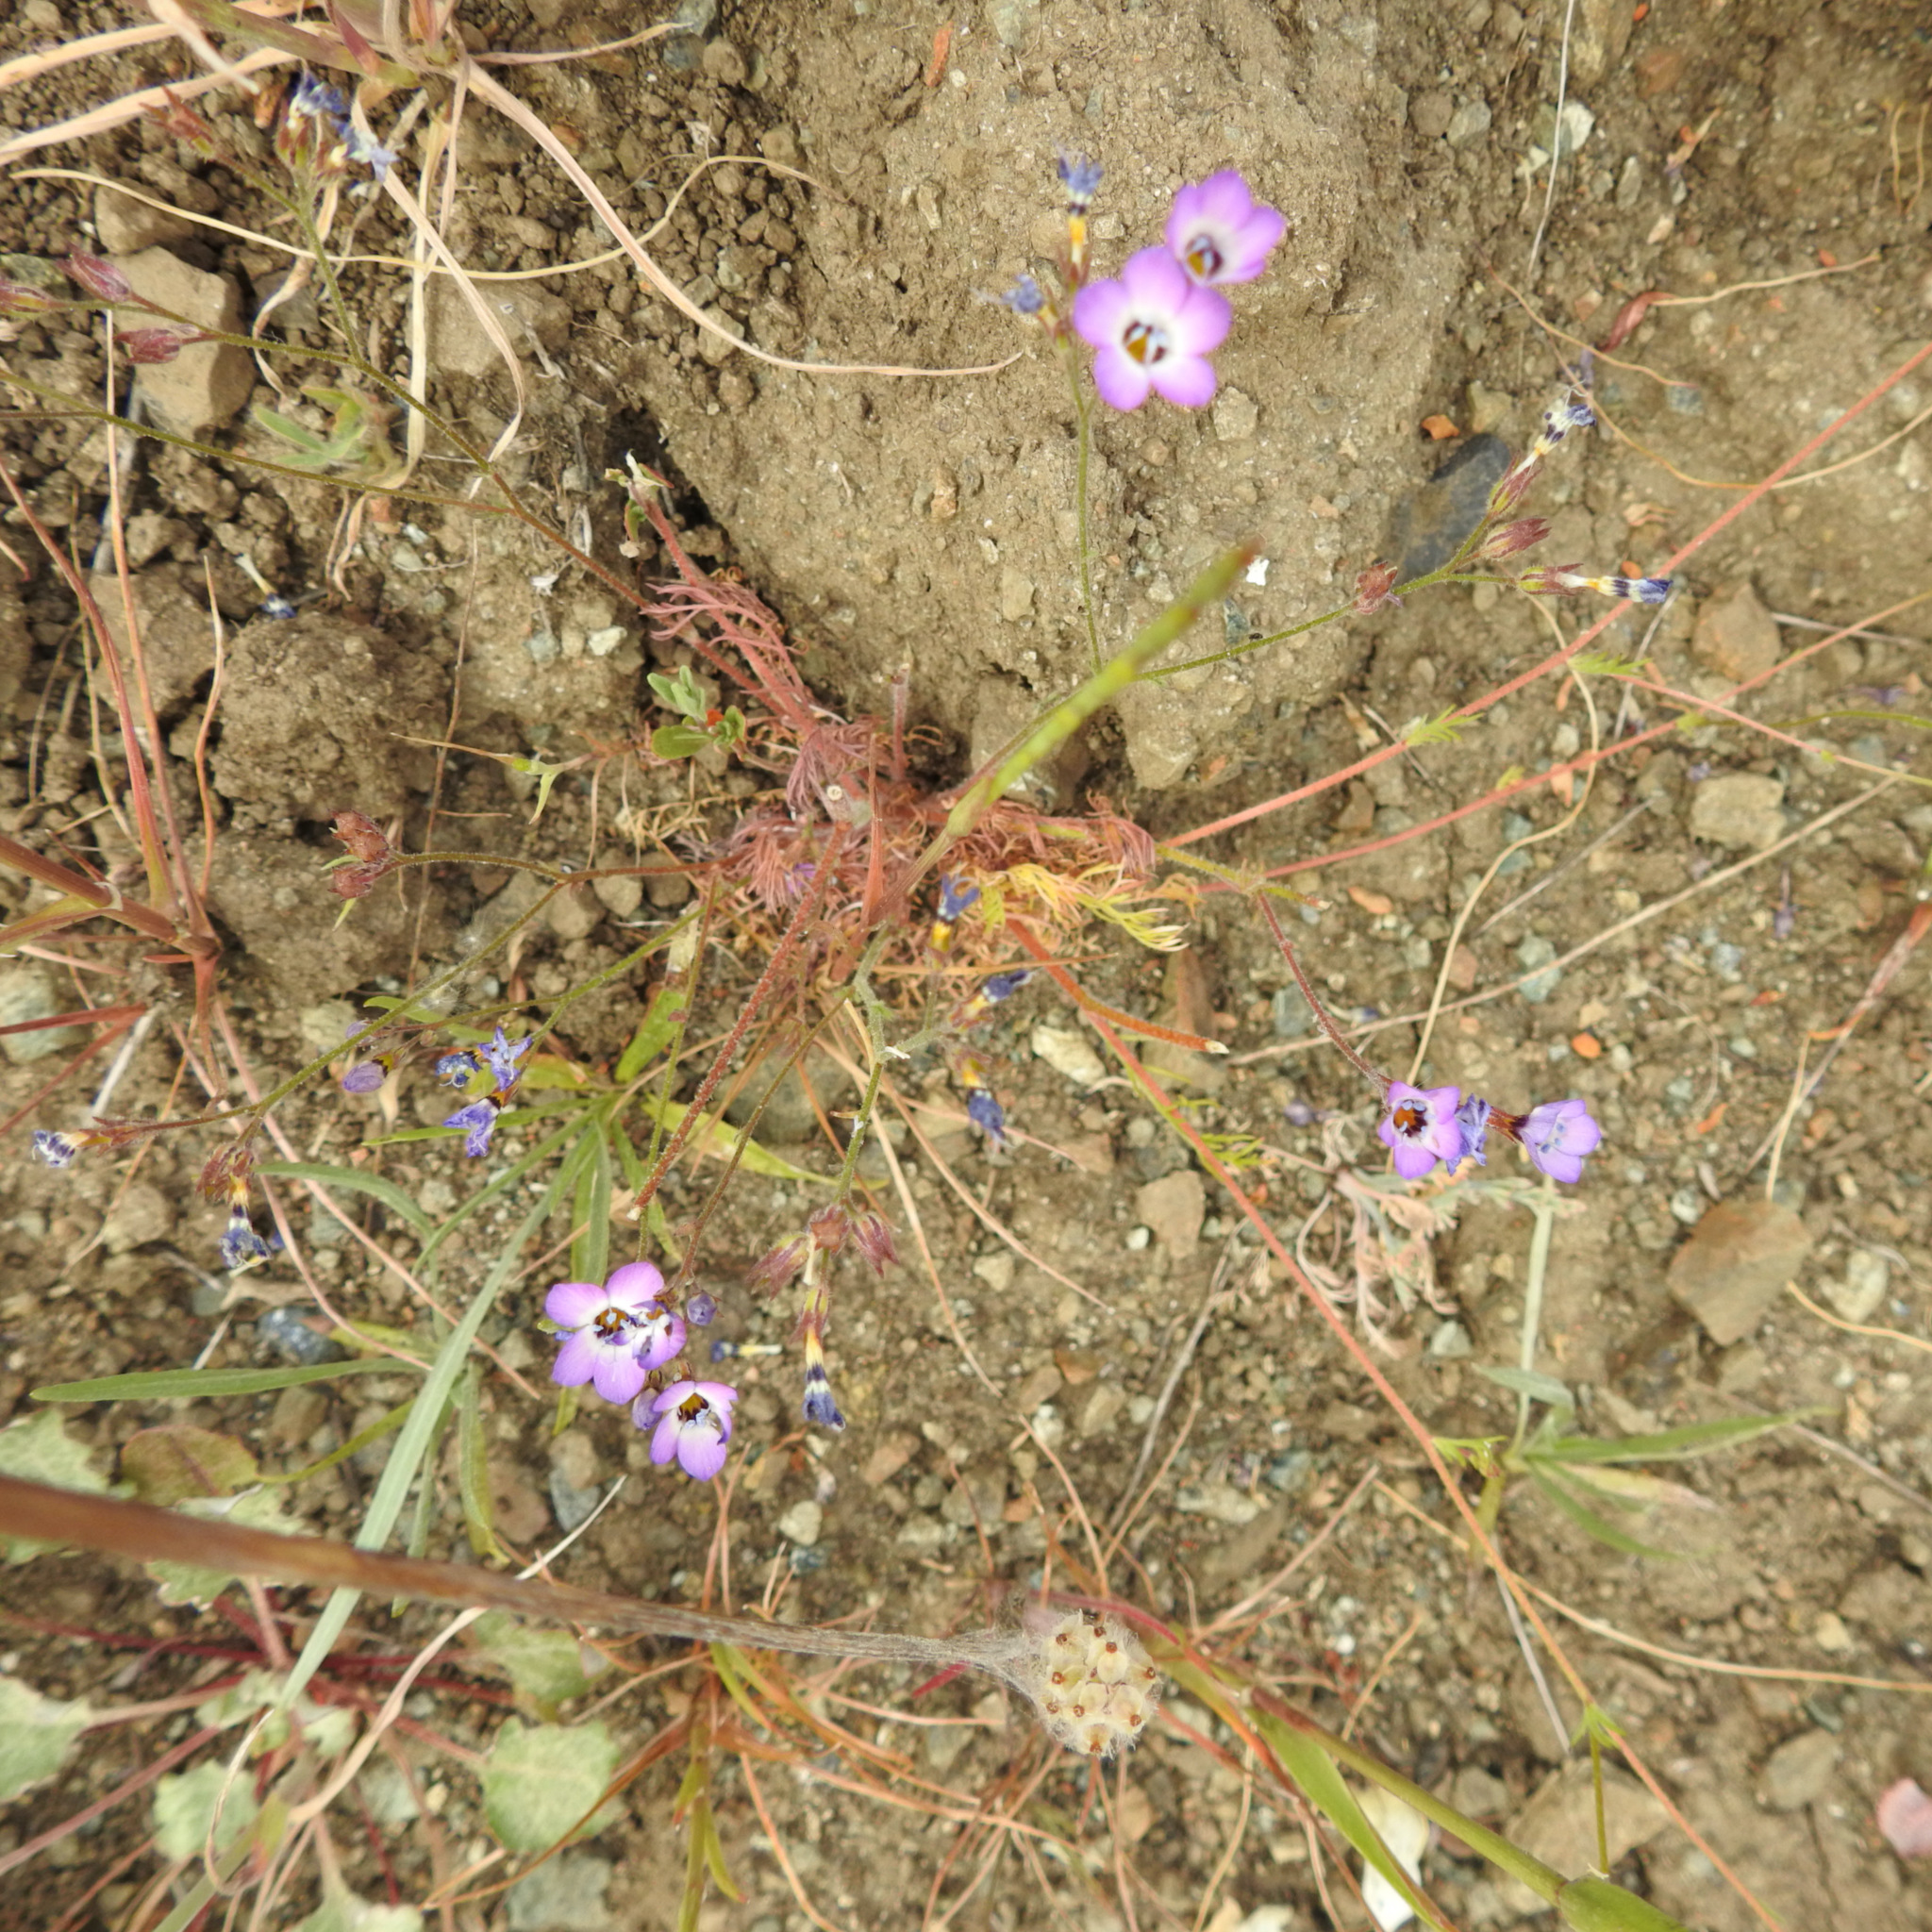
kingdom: Plantae
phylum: Tracheophyta
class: Magnoliopsida
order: Ericales
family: Polemoniaceae
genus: Gilia
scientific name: Gilia tricolor
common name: Bird's-eyes
